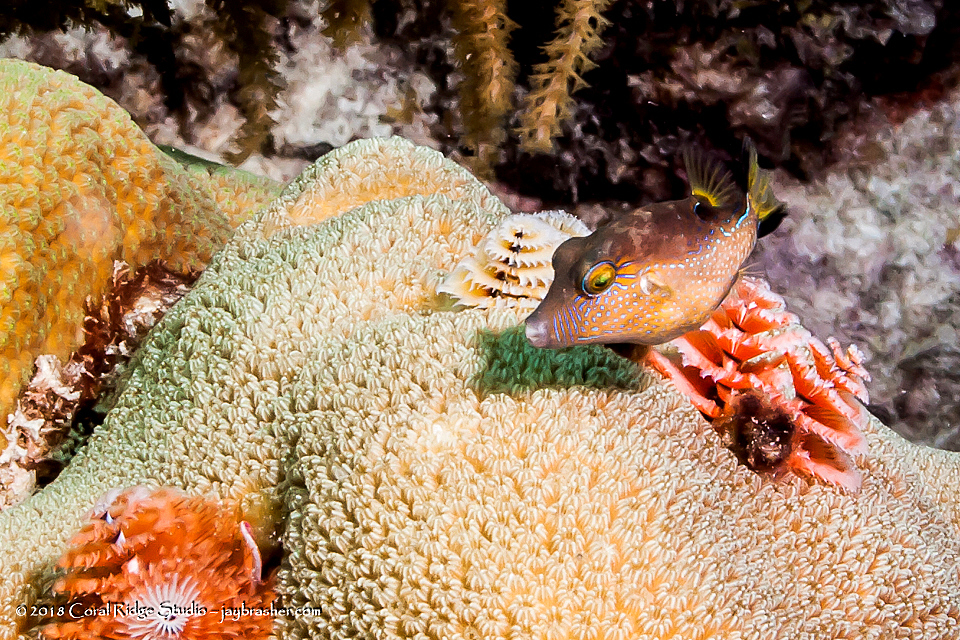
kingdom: Animalia
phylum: Chordata
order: Tetraodontiformes
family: Tetraodontidae
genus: Canthigaster
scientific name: Canthigaster rostrata
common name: Caribbean sharpnose-puffer
